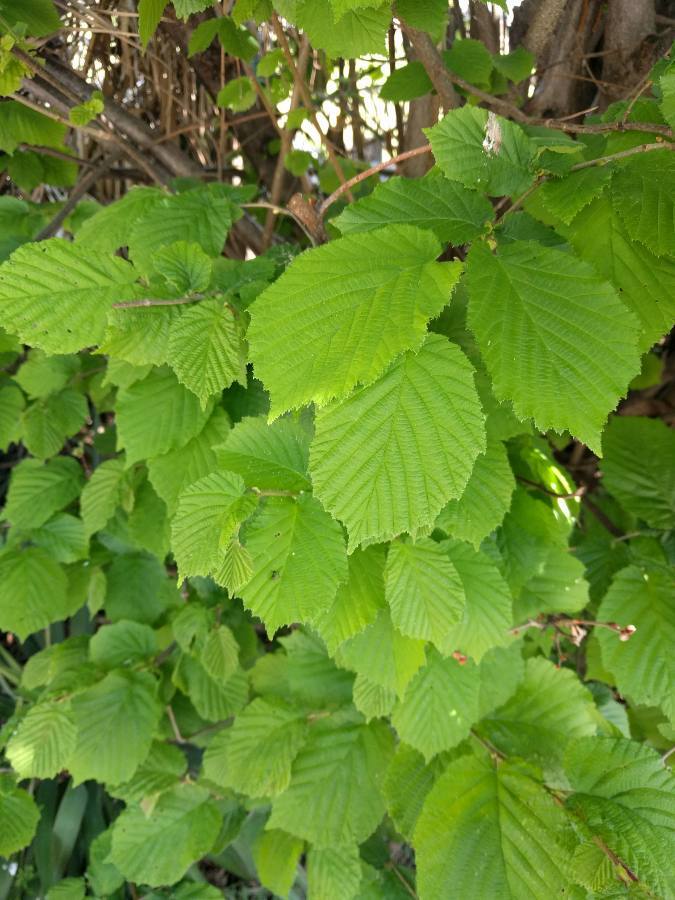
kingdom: Plantae
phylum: Tracheophyta
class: Magnoliopsida
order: Fagales
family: Betulaceae
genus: Corylus
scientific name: Corylus avellana
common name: European hazel
